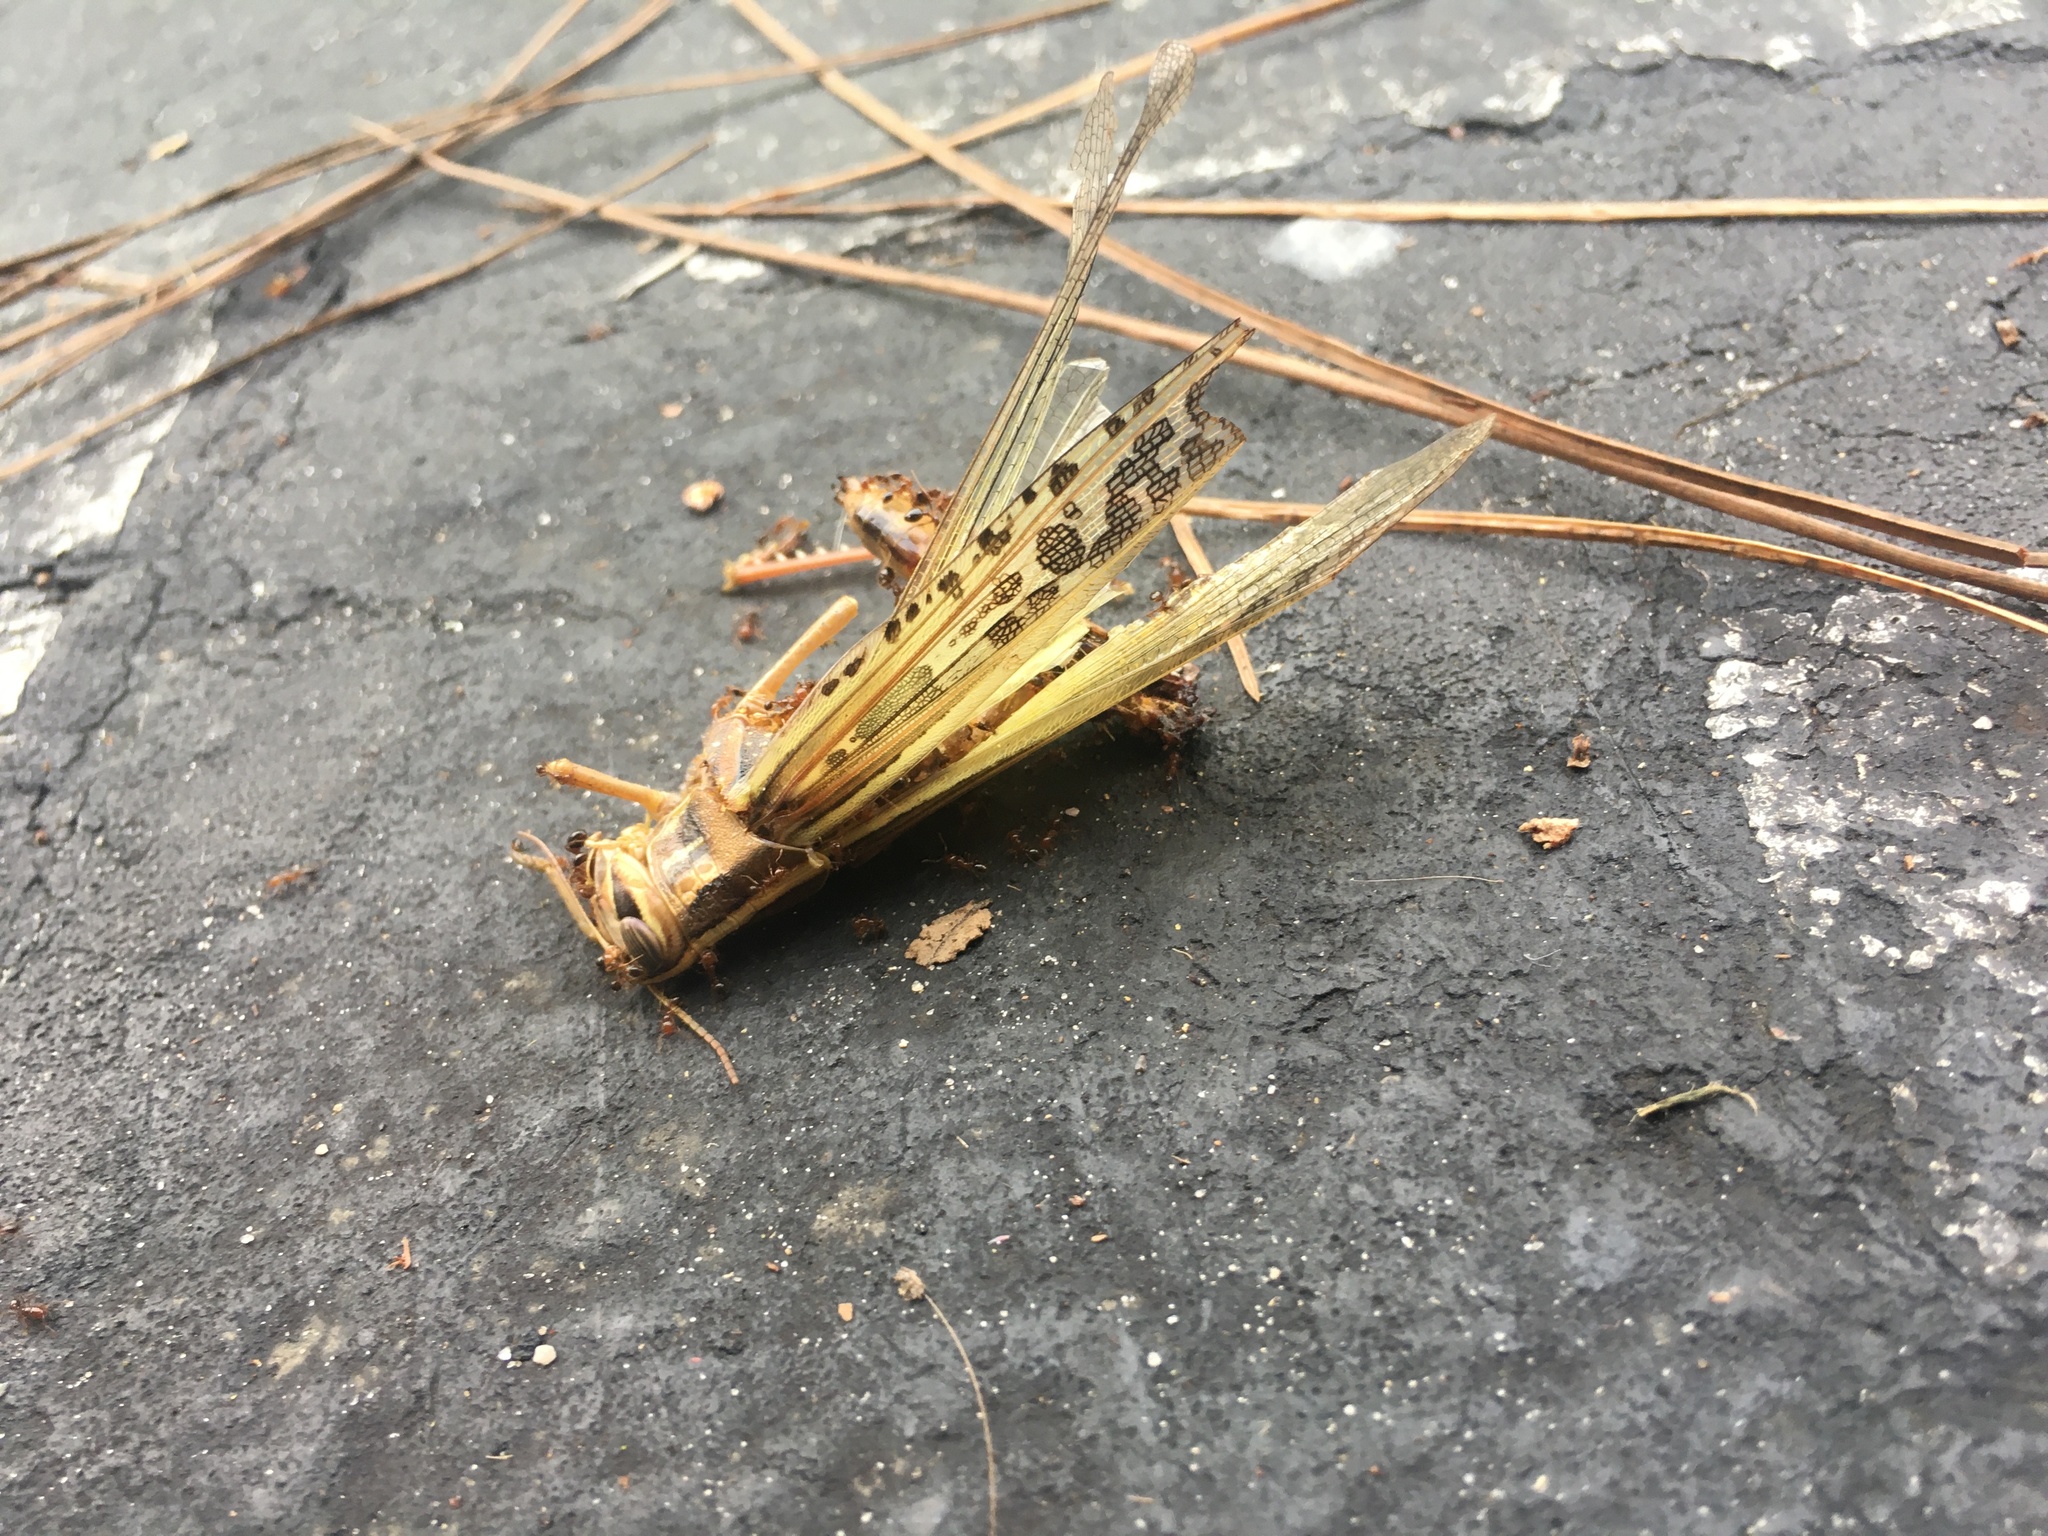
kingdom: Animalia
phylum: Arthropoda
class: Insecta
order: Orthoptera
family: Acrididae
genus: Schistocerca
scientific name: Schistocerca americana
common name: American bird locust
